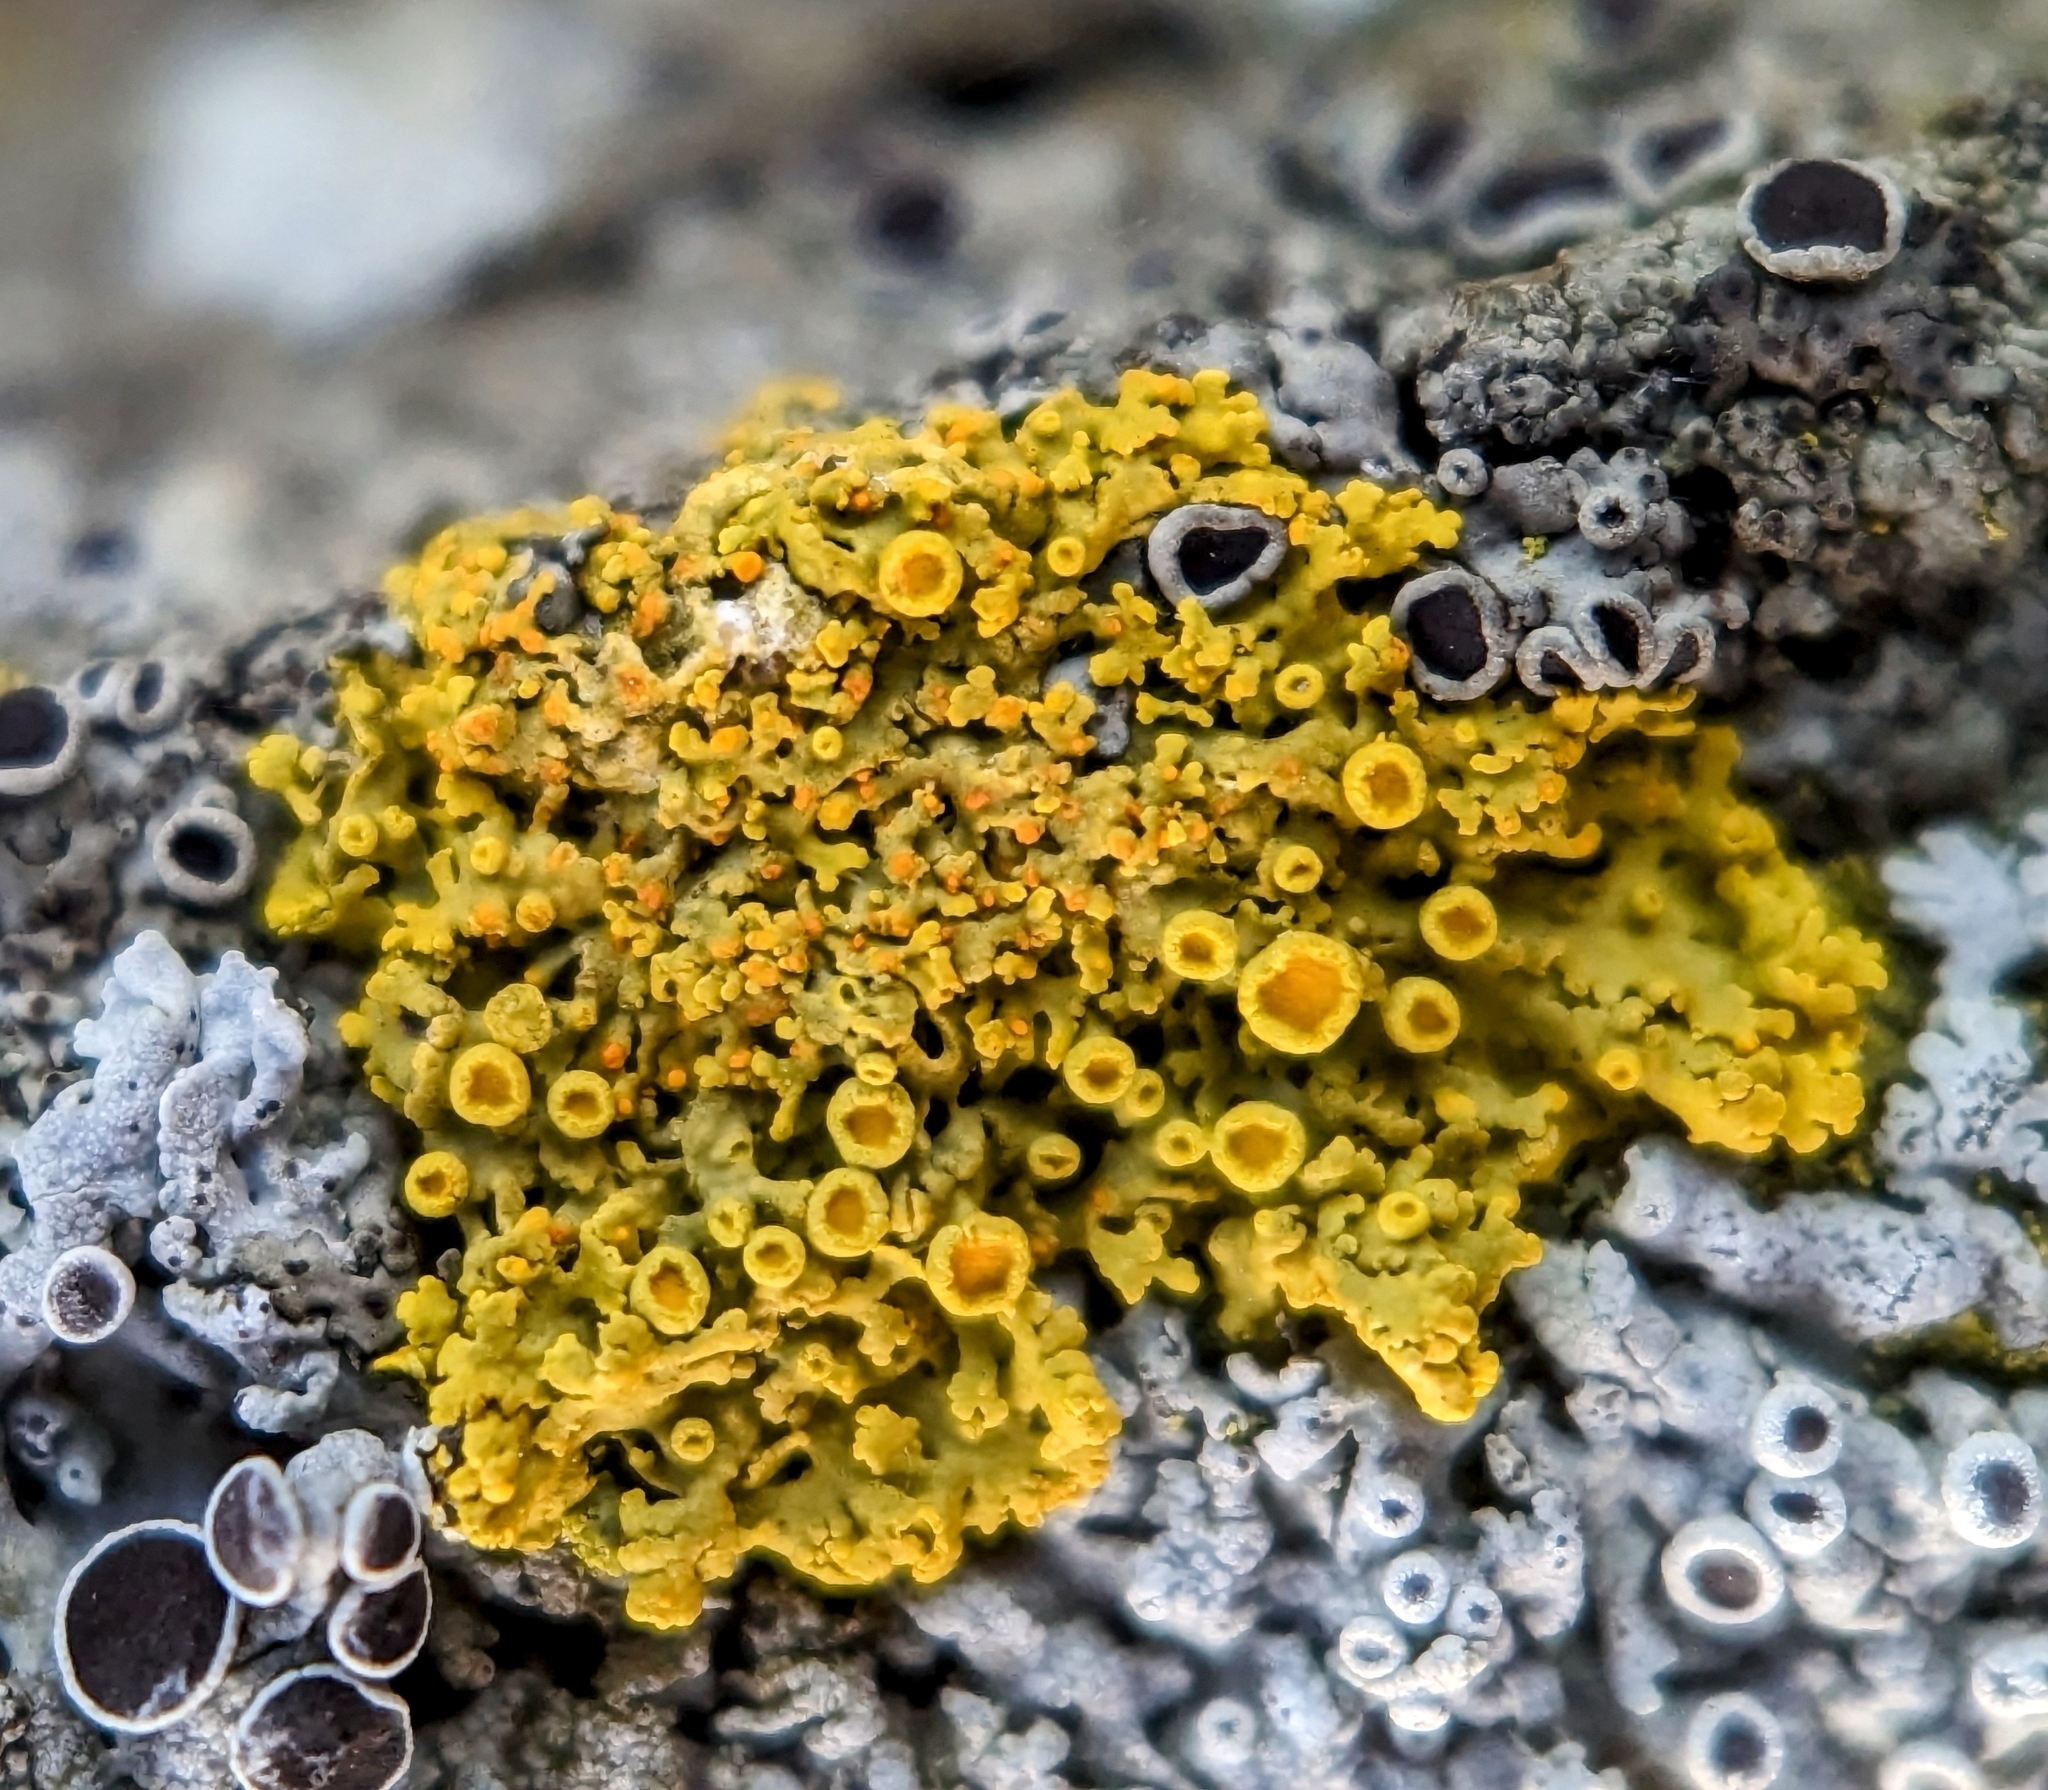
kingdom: Fungi
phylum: Ascomycota
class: Lecanoromycetes
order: Teloschistales
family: Teloschistaceae
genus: Gallowayella
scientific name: Gallowayella hasseana
